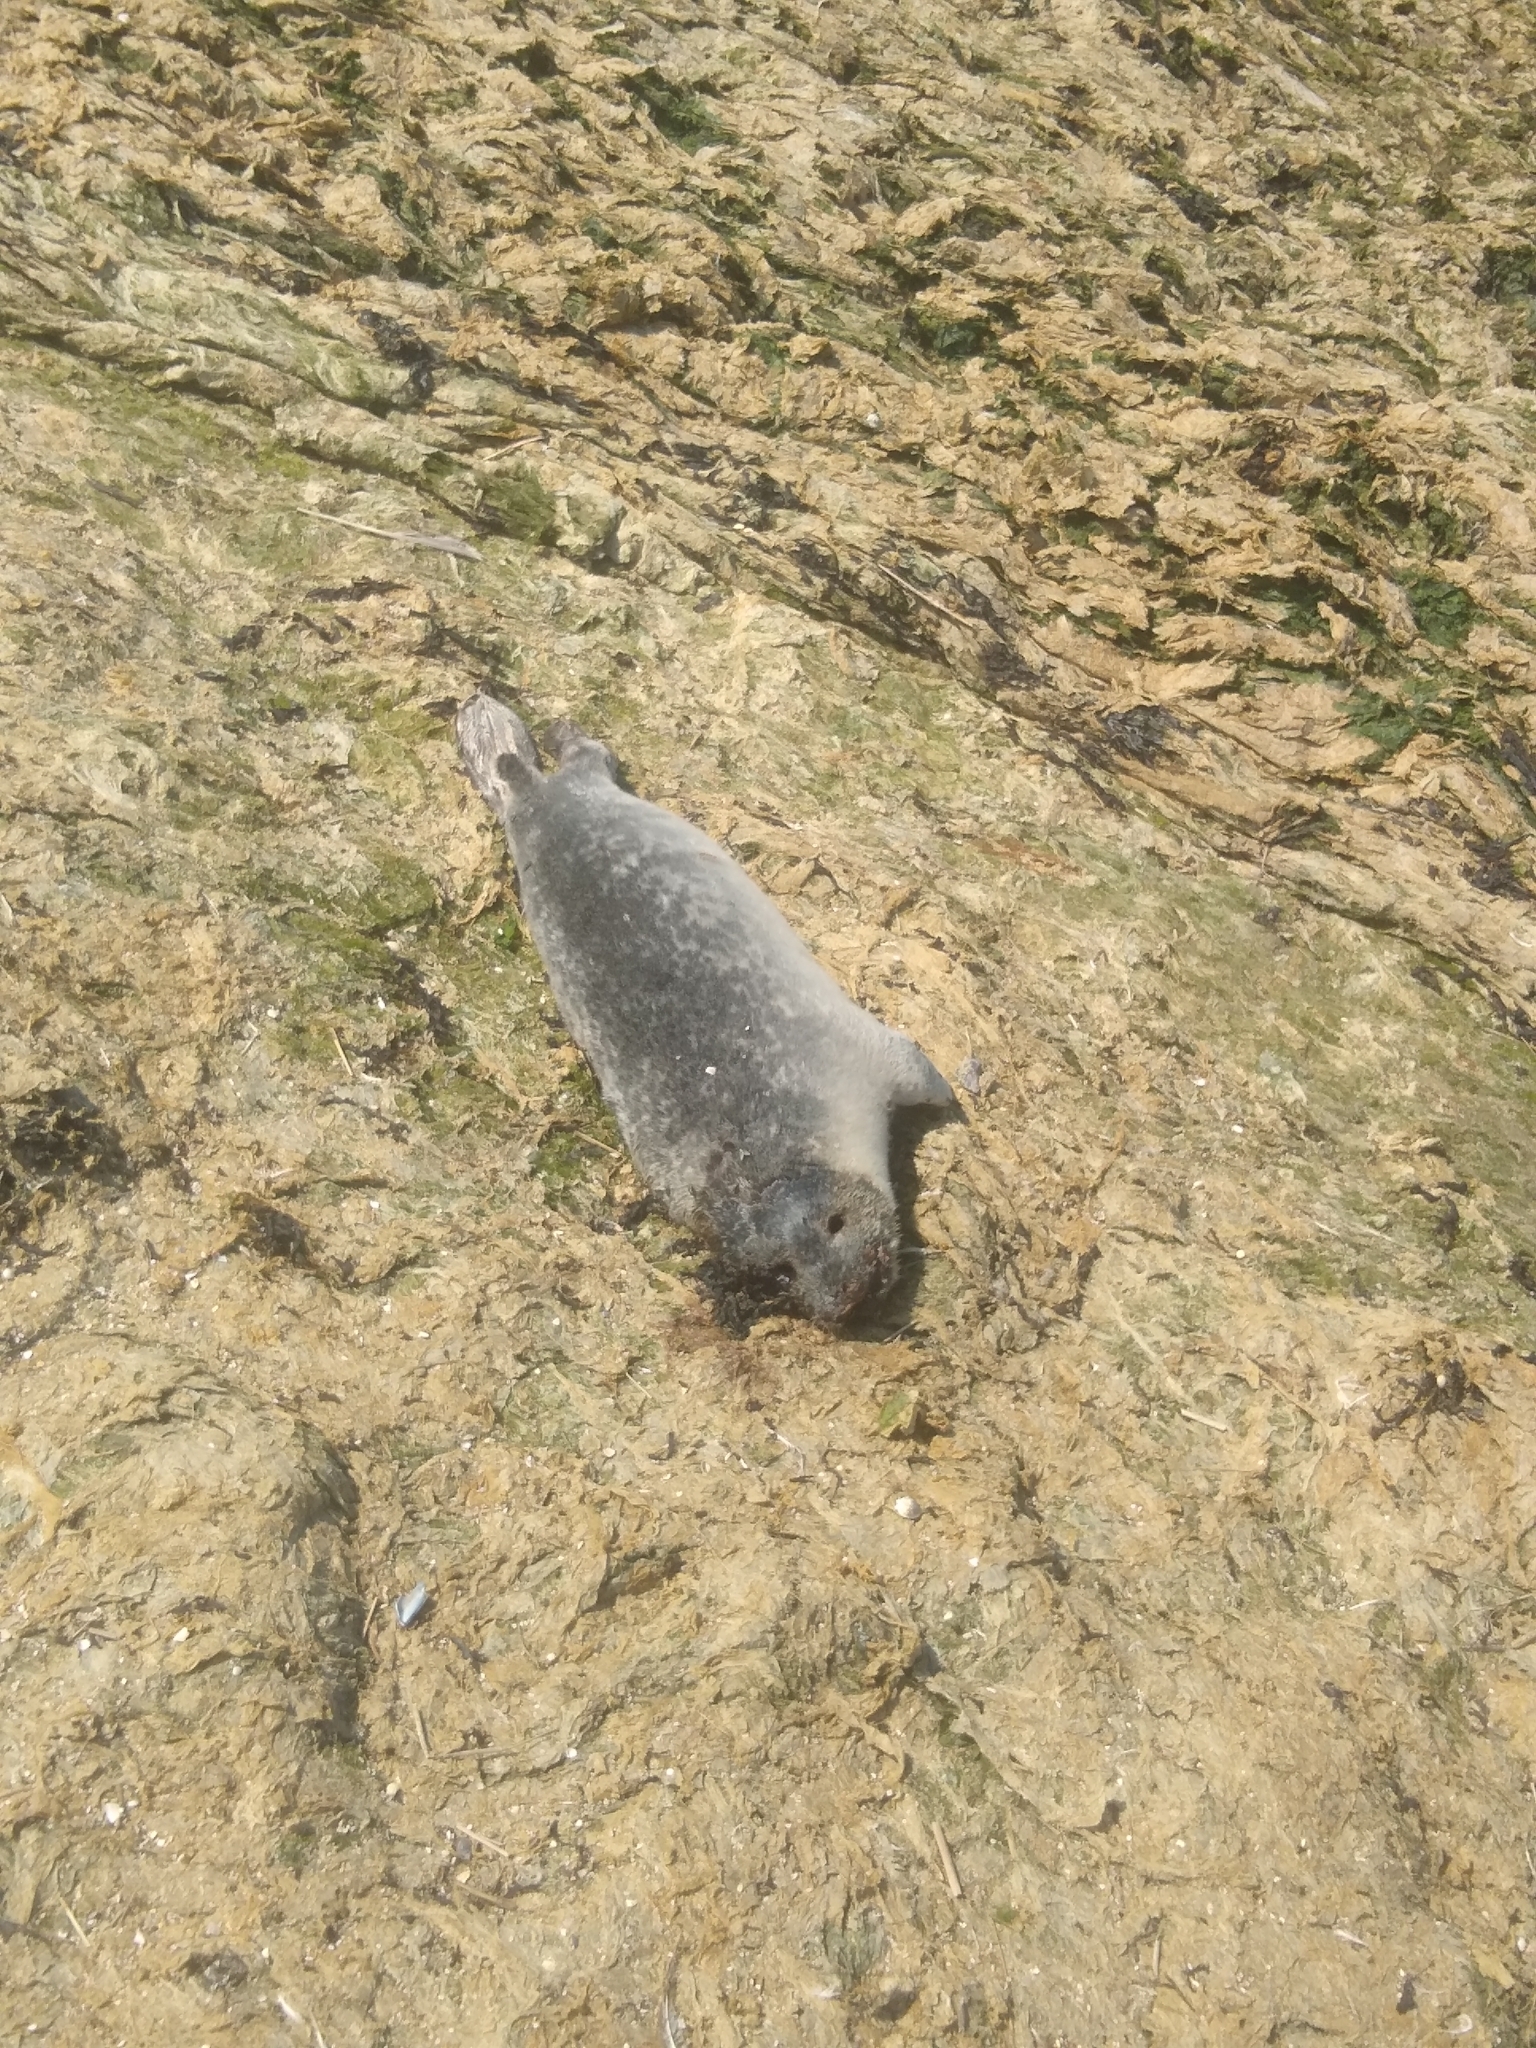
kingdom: Animalia
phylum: Chordata
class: Mammalia
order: Carnivora
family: Phocidae
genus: Phoca
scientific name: Phoca vitulina
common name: Harbor seal
